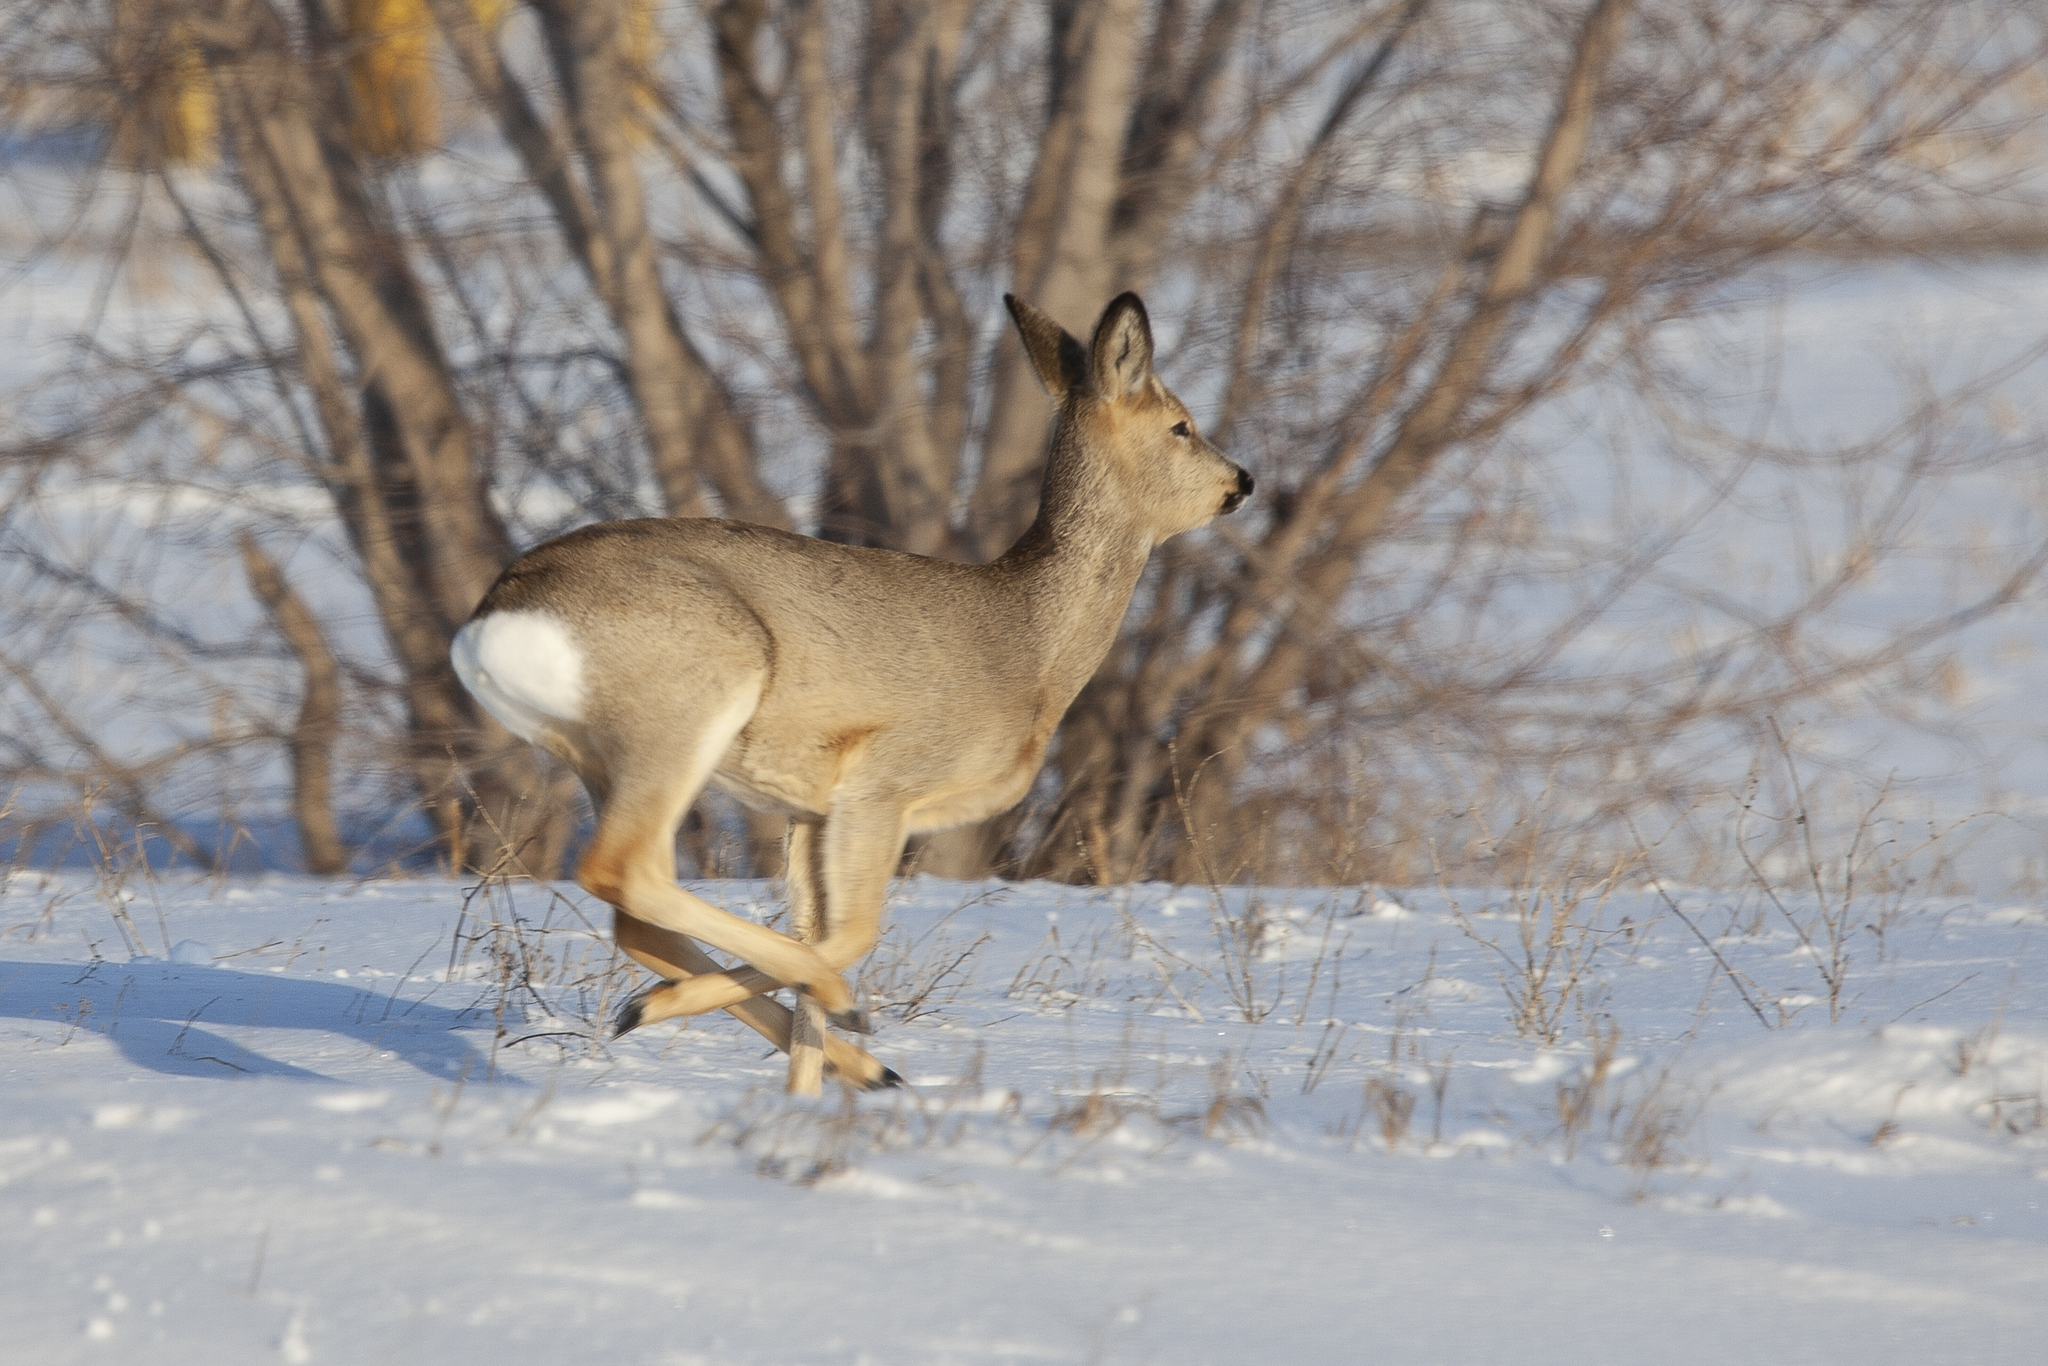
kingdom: Animalia
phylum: Chordata
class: Mammalia
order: Artiodactyla
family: Cervidae
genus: Capreolus
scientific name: Capreolus pygargus
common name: Siberian roe
